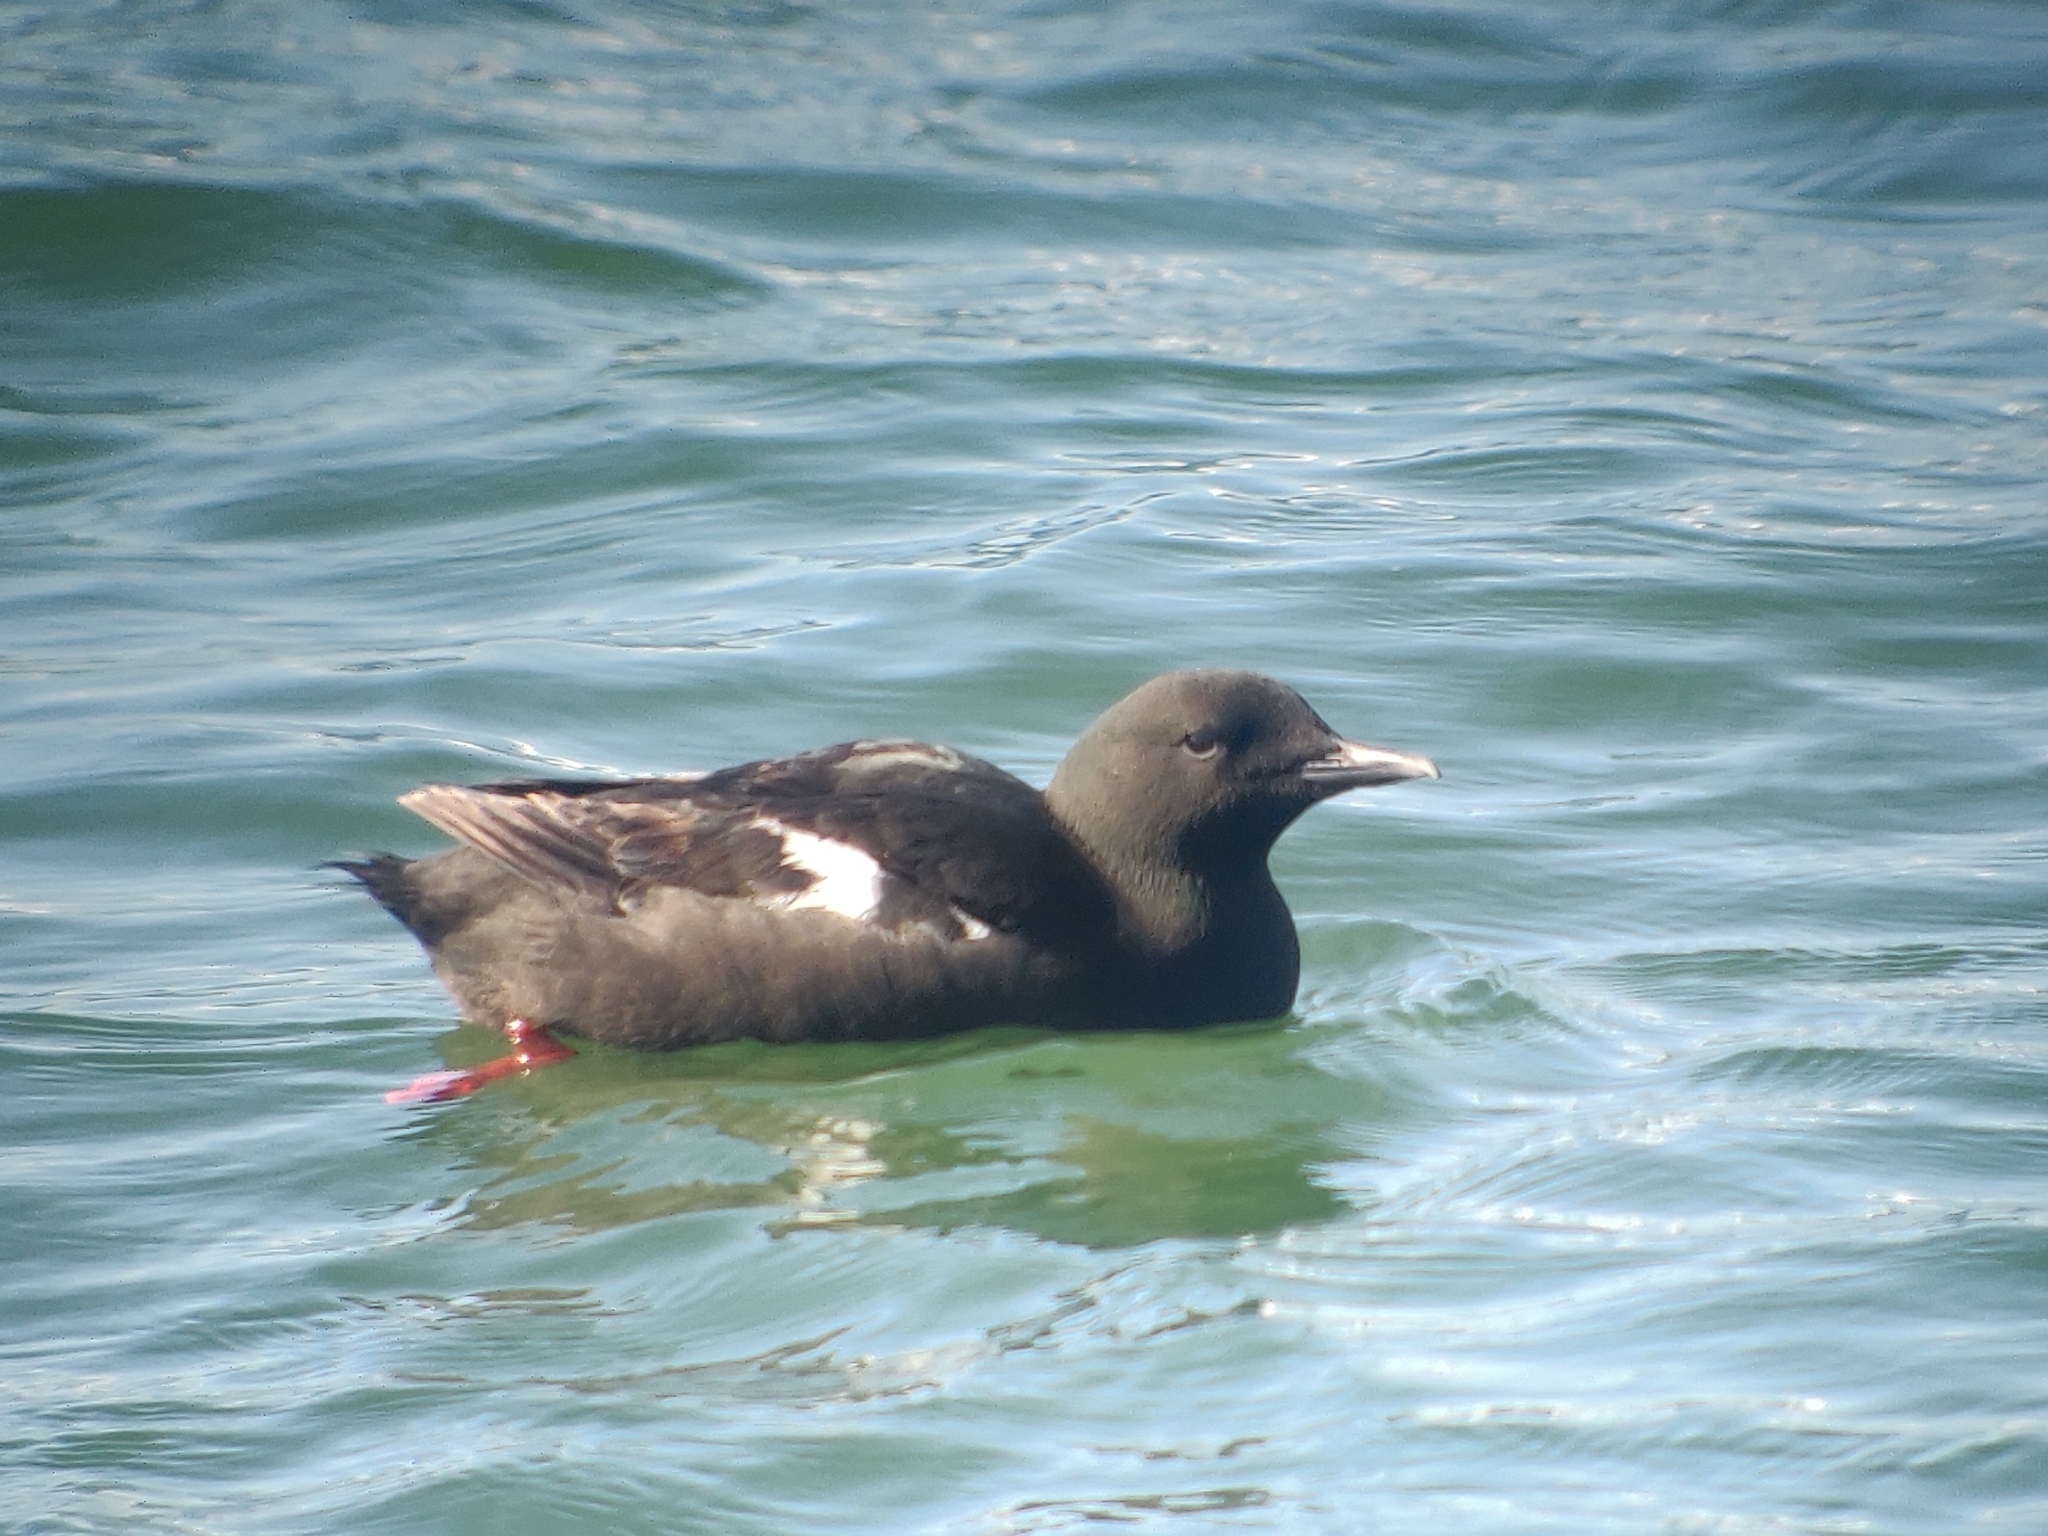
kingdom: Animalia
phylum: Chordata
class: Aves
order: Charadriiformes
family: Alcidae
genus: Cepphus
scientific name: Cepphus grylle
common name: Black guillemot
